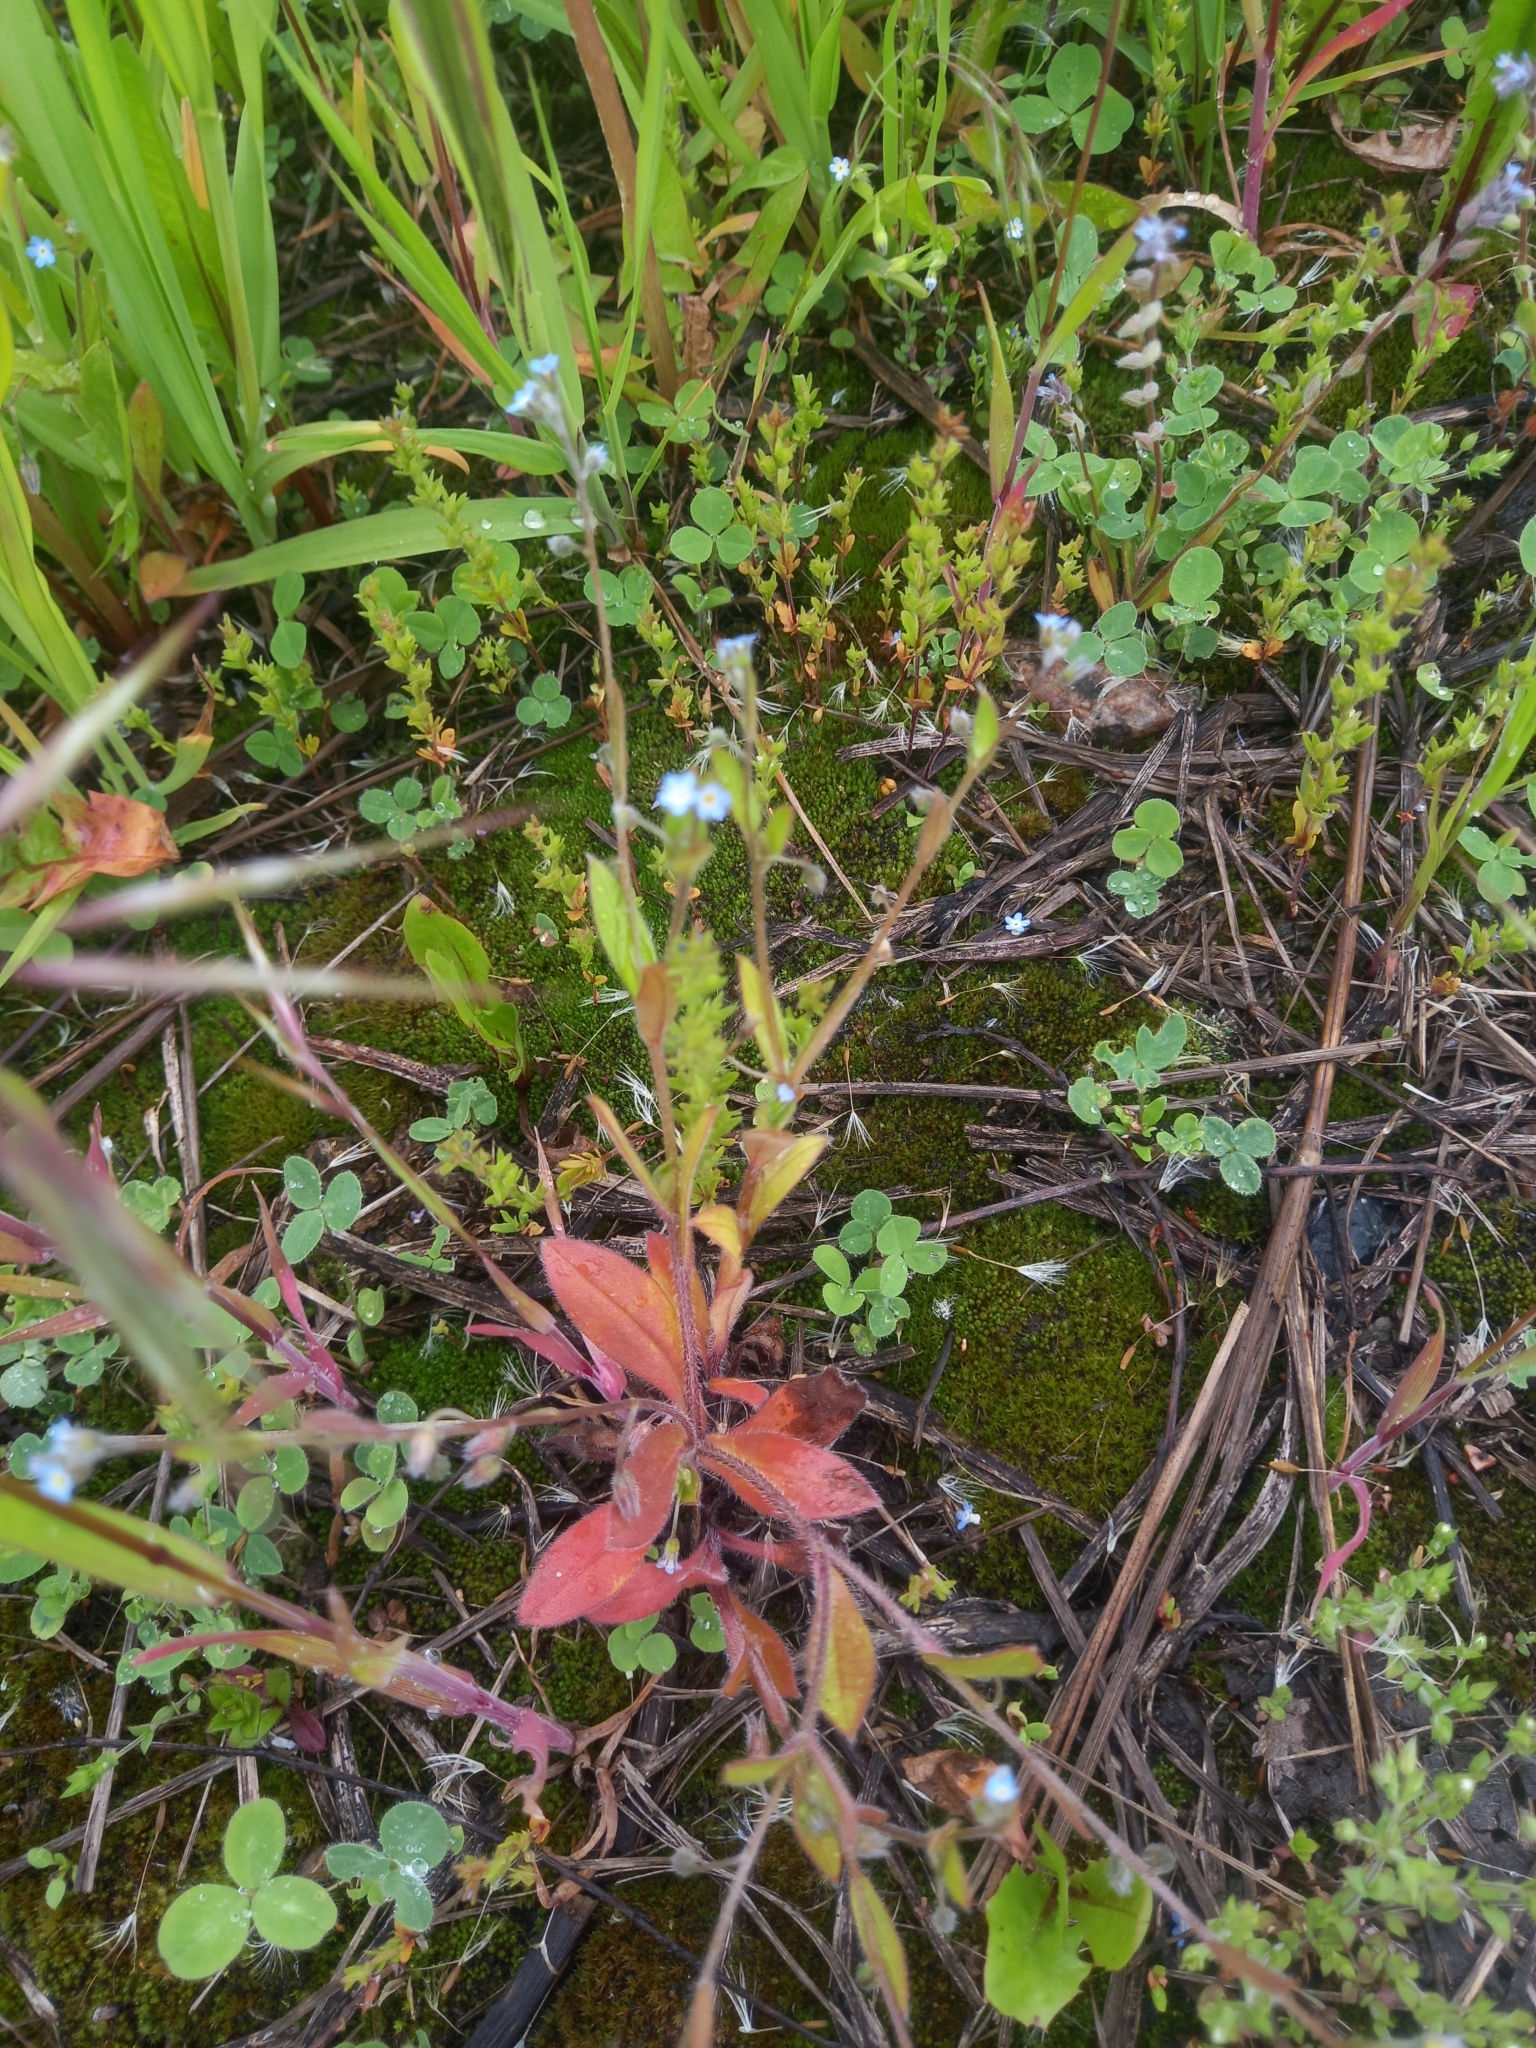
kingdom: Plantae
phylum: Tracheophyta
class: Magnoliopsida
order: Boraginales
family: Boraginaceae
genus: Myosotis
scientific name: Myosotis stricta
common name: Strict forget-me-not
